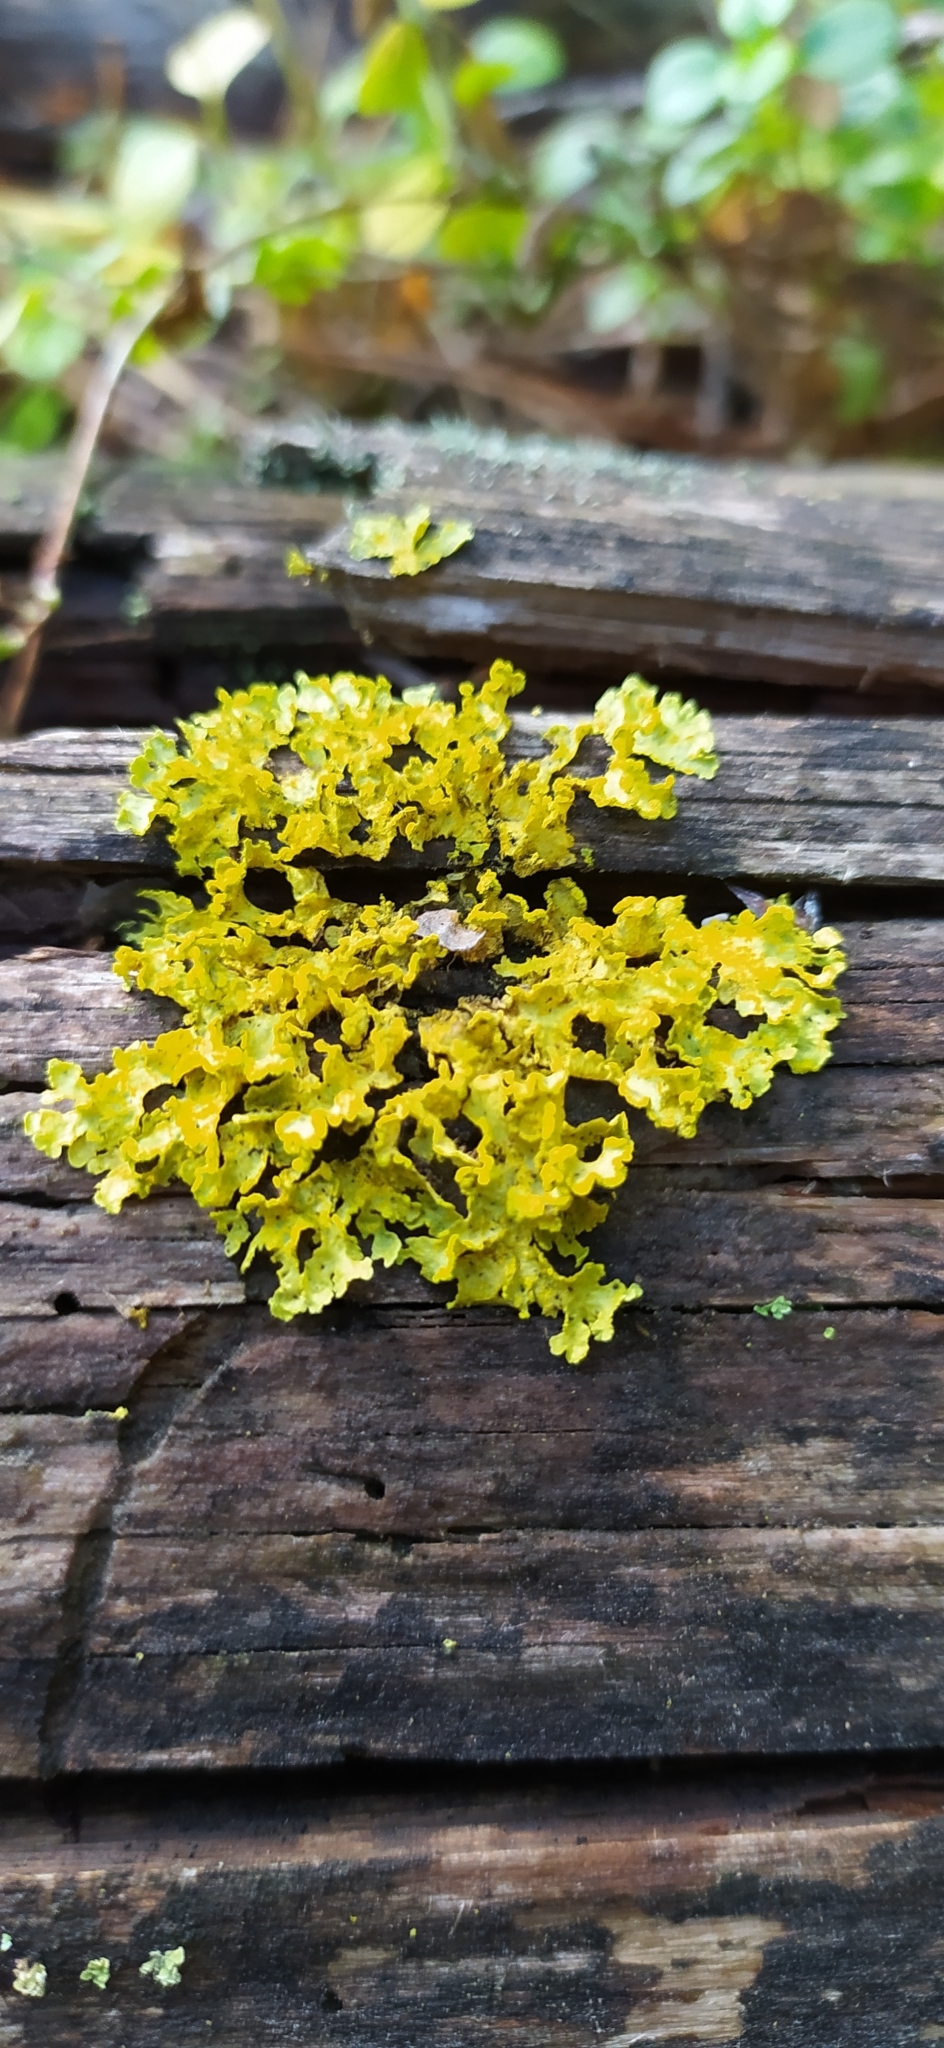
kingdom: Fungi
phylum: Ascomycota
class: Lecanoromycetes
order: Lecanorales
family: Parmeliaceae
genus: Vulpicida
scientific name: Vulpicida pinastri
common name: Powdered sunshine lichen
